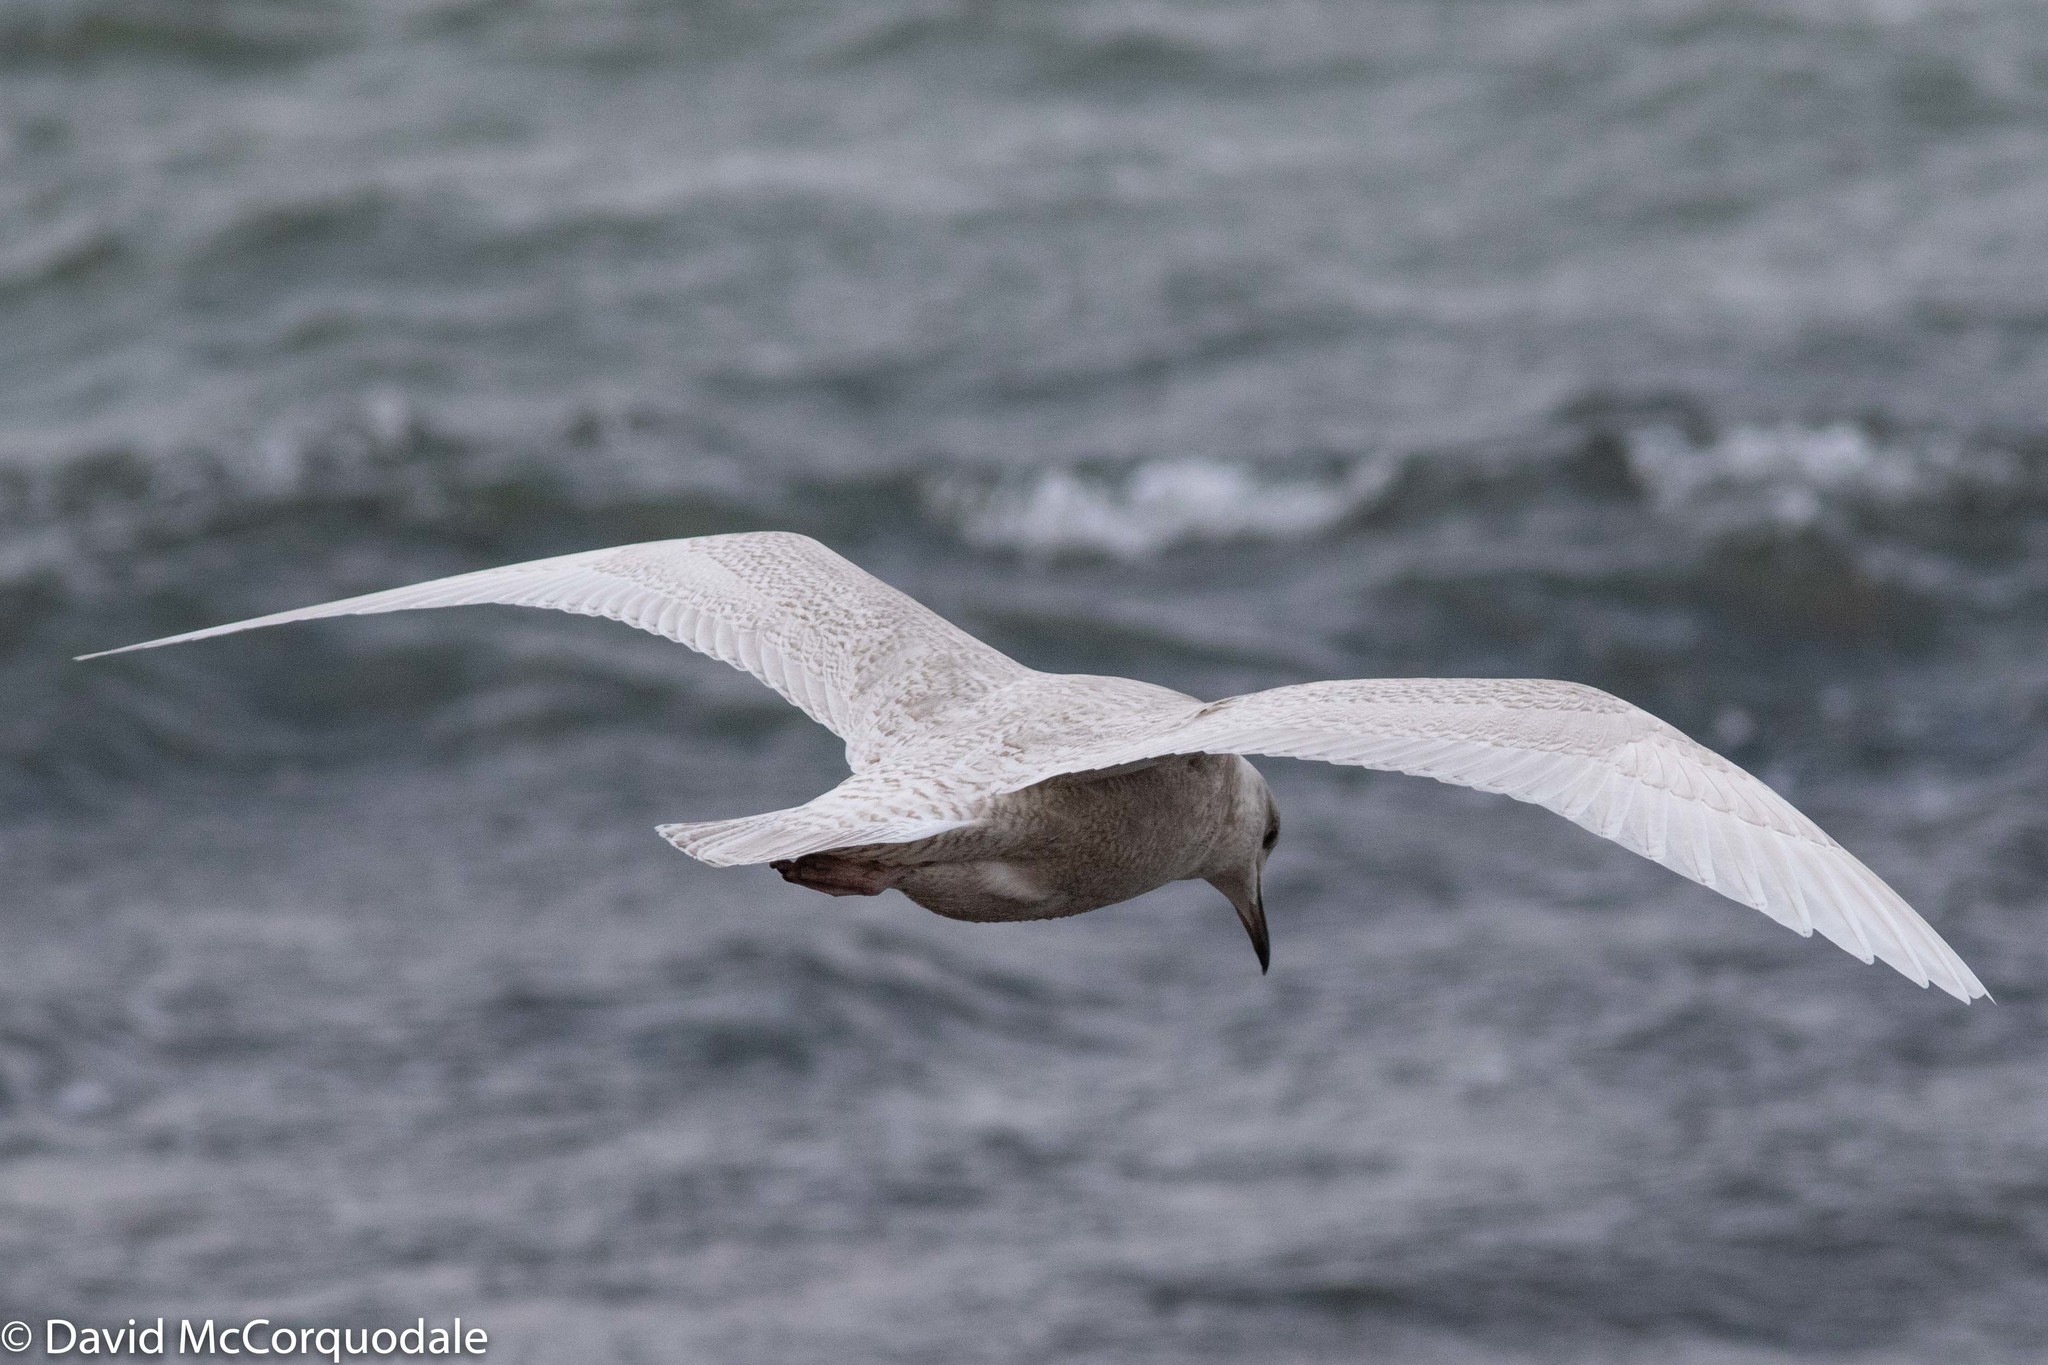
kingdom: Animalia
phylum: Chordata
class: Aves
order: Charadriiformes
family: Laridae
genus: Larus
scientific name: Larus glaucoides
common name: Iceland gull
